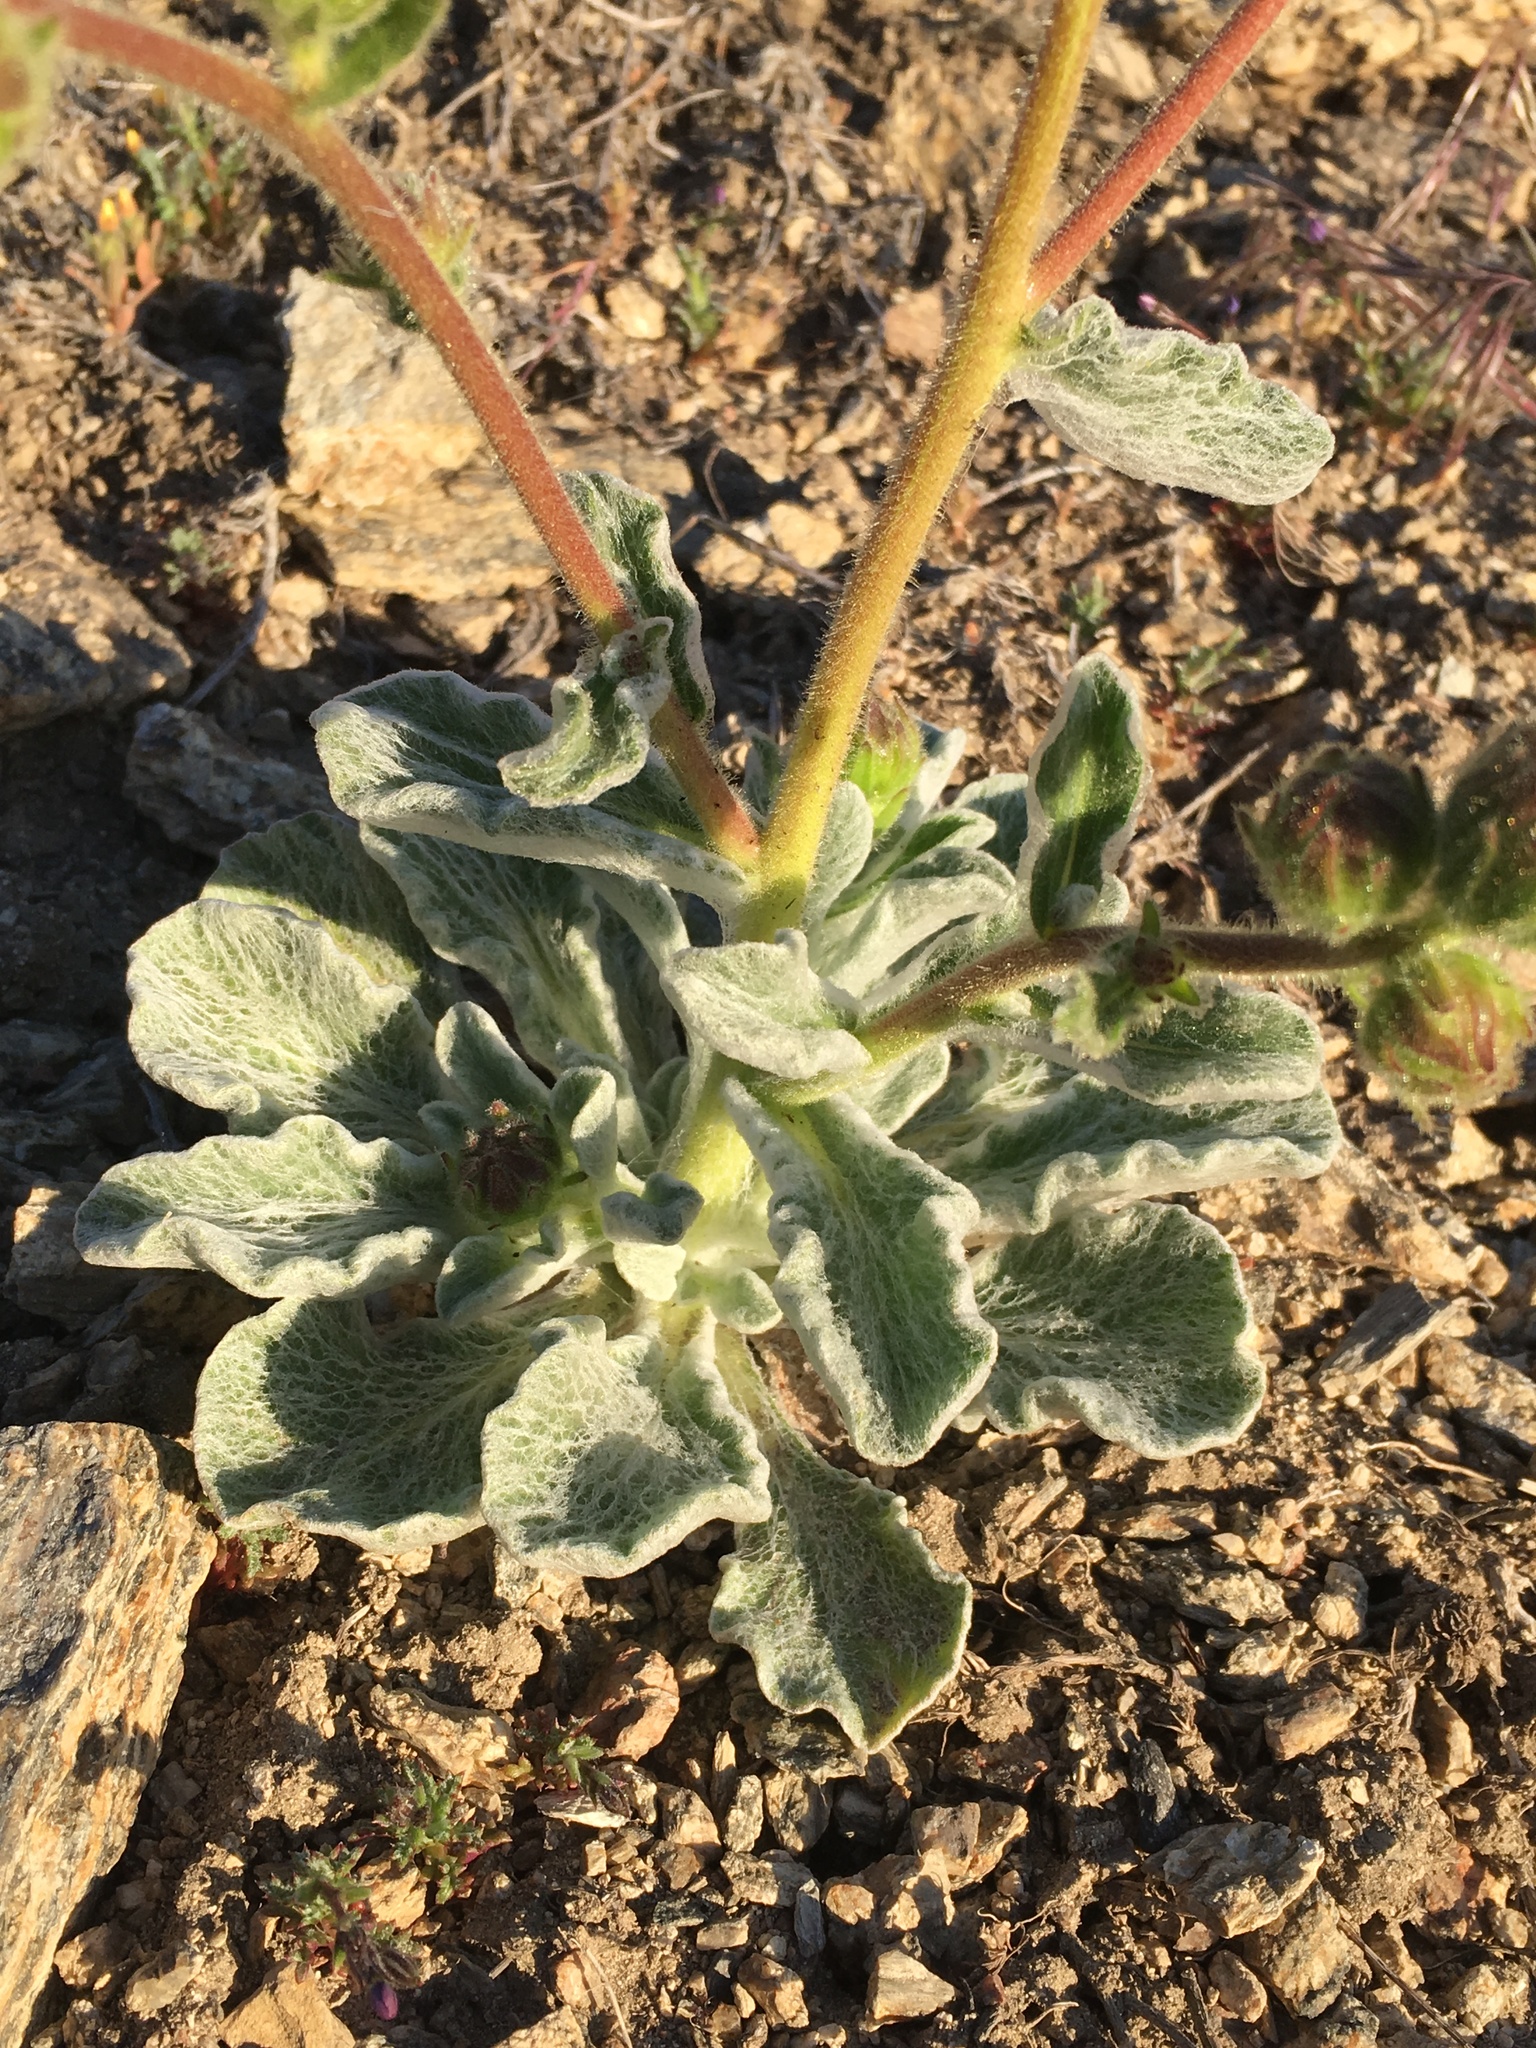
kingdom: Plantae
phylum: Tracheophyta
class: Magnoliopsida
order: Asterales
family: Asteraceae
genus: Hulsea
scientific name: Hulsea vestita
